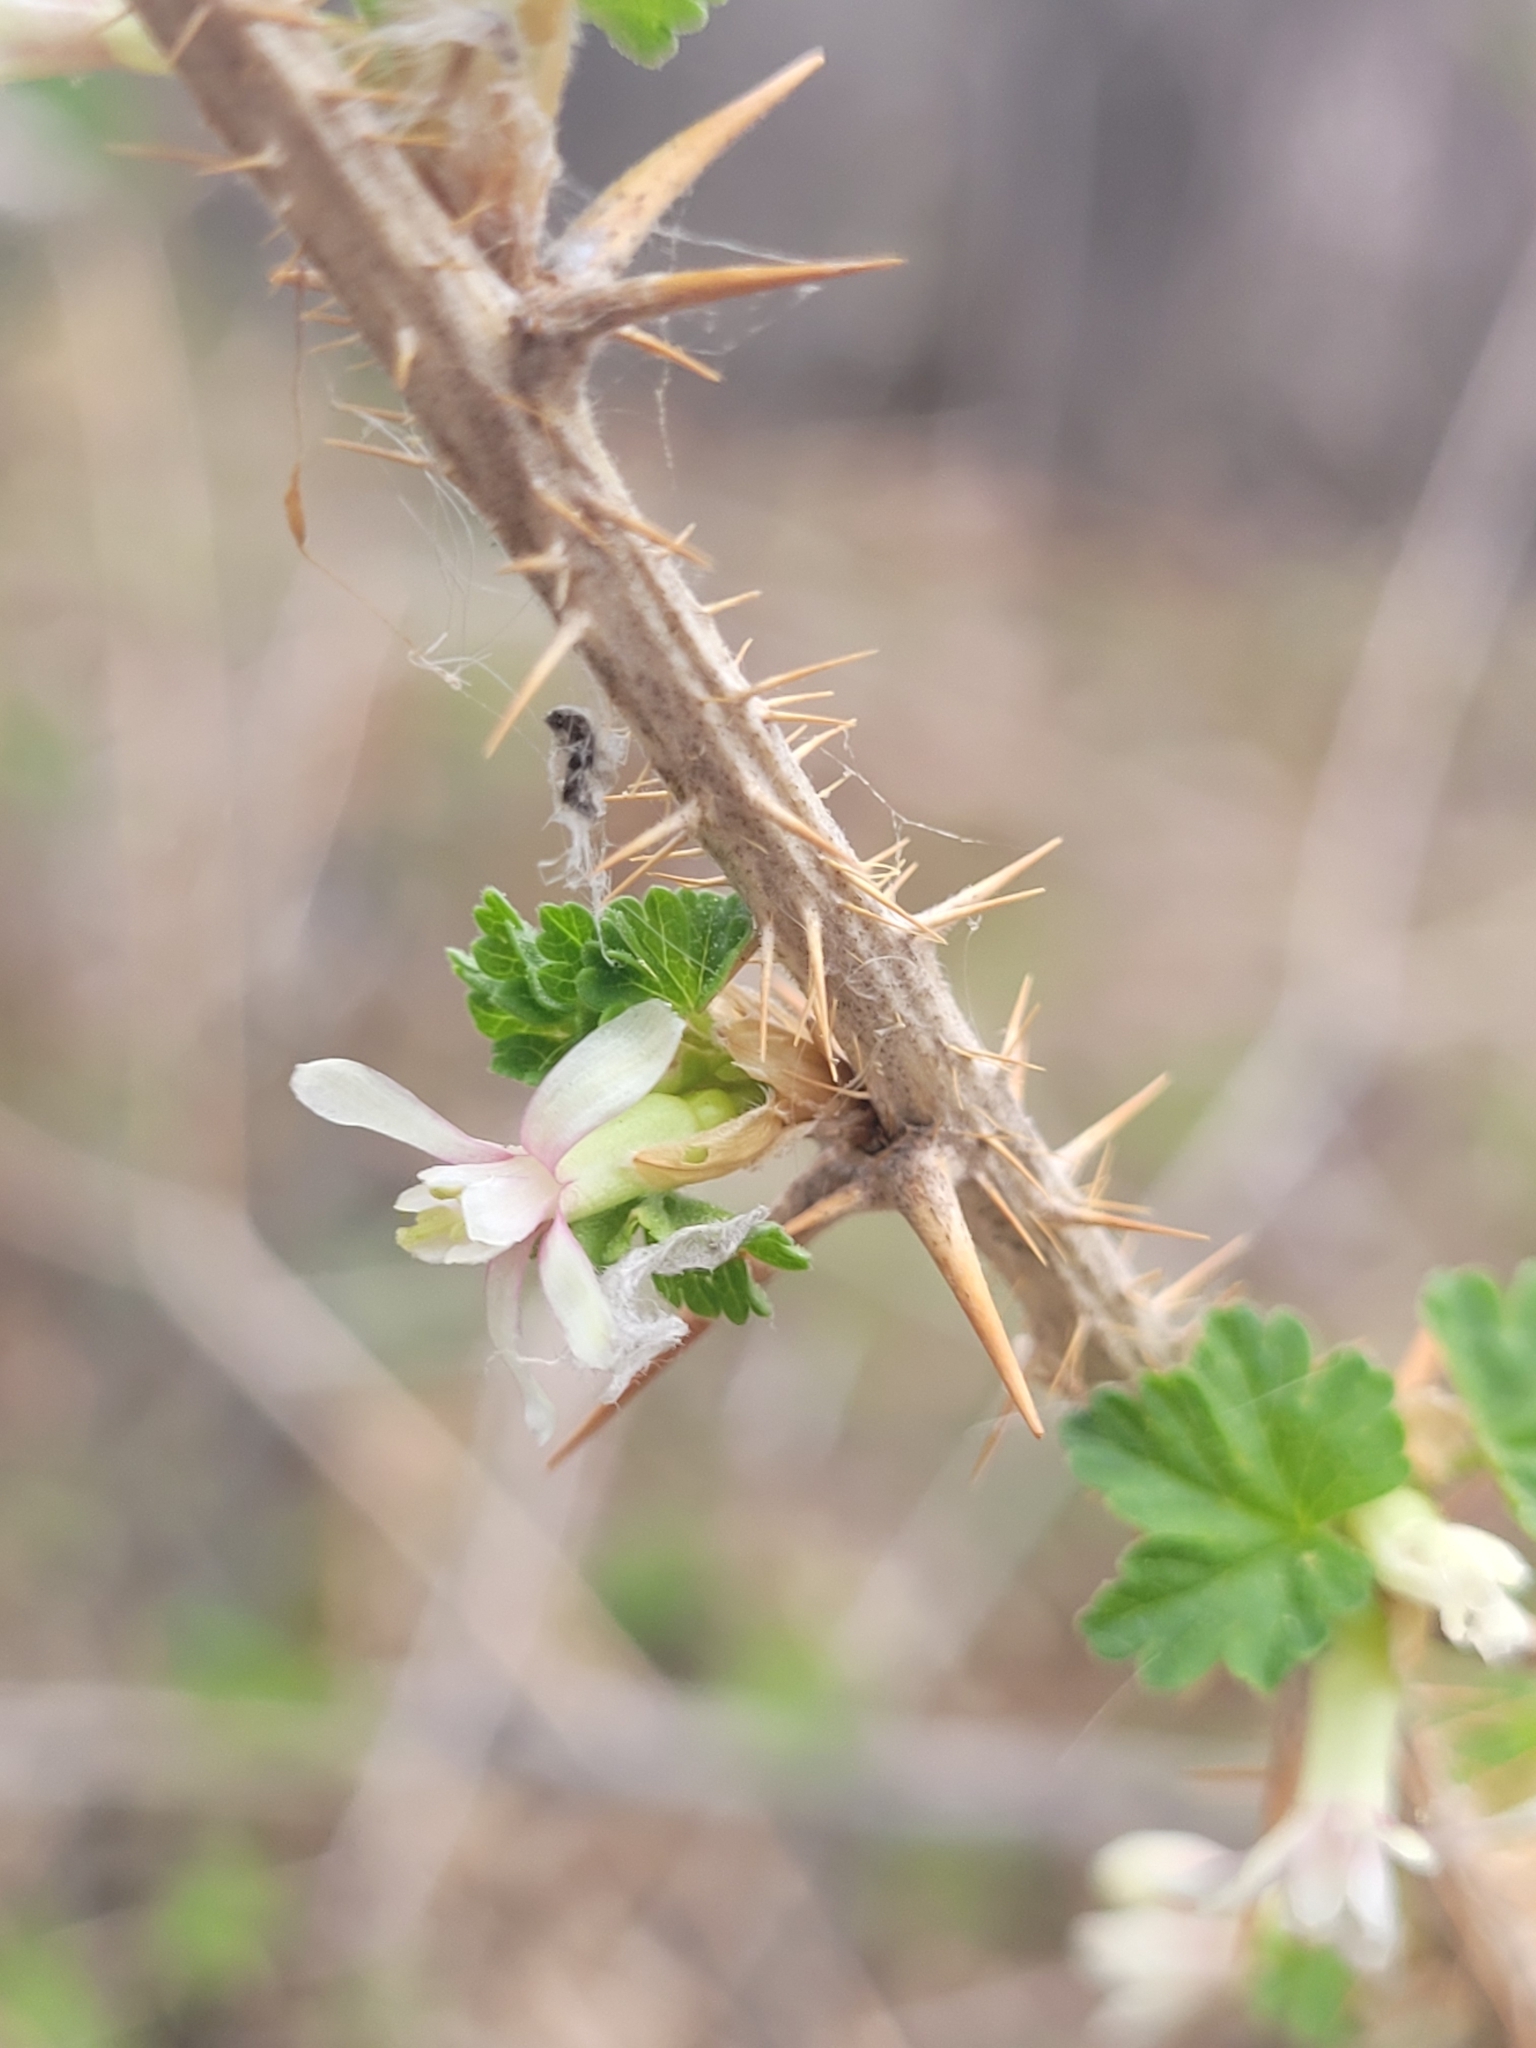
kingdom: Plantae
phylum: Tracheophyta
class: Magnoliopsida
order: Saxifragales
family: Grossulariaceae
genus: Ribes
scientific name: Ribes oxyacanthoides
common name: Northern gooseberry
